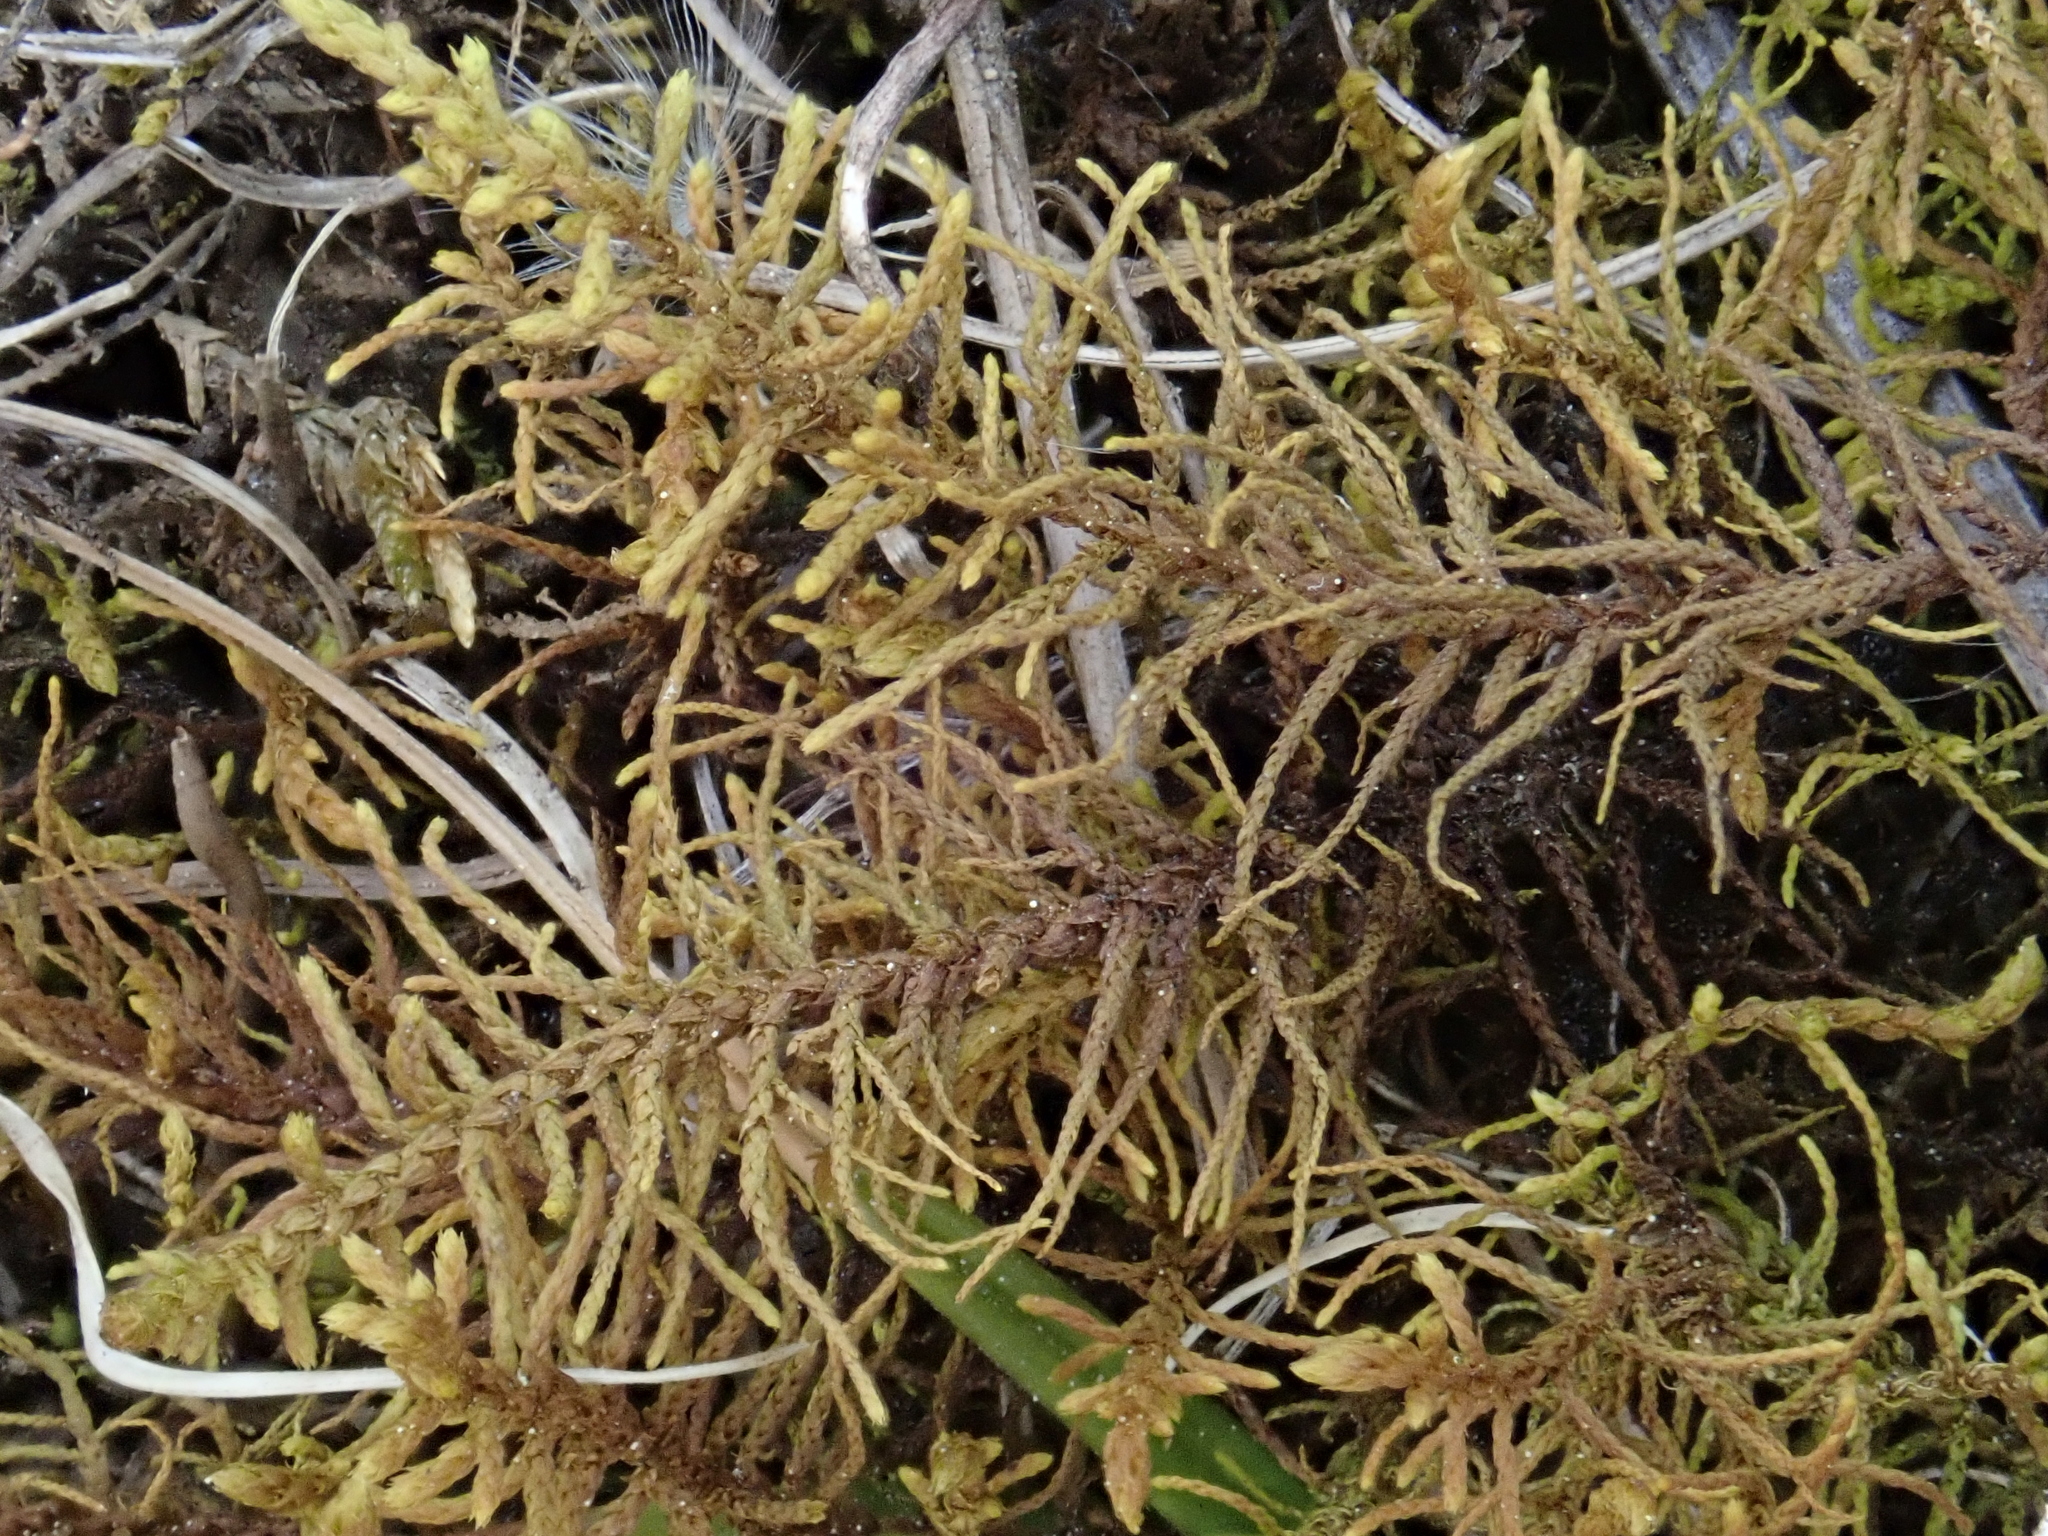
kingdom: Plantae
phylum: Bryophyta
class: Bryopsida
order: Hypnales
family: Thuidiaceae
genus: Abietinella
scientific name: Abietinella abietina
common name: Wiry fern moss
